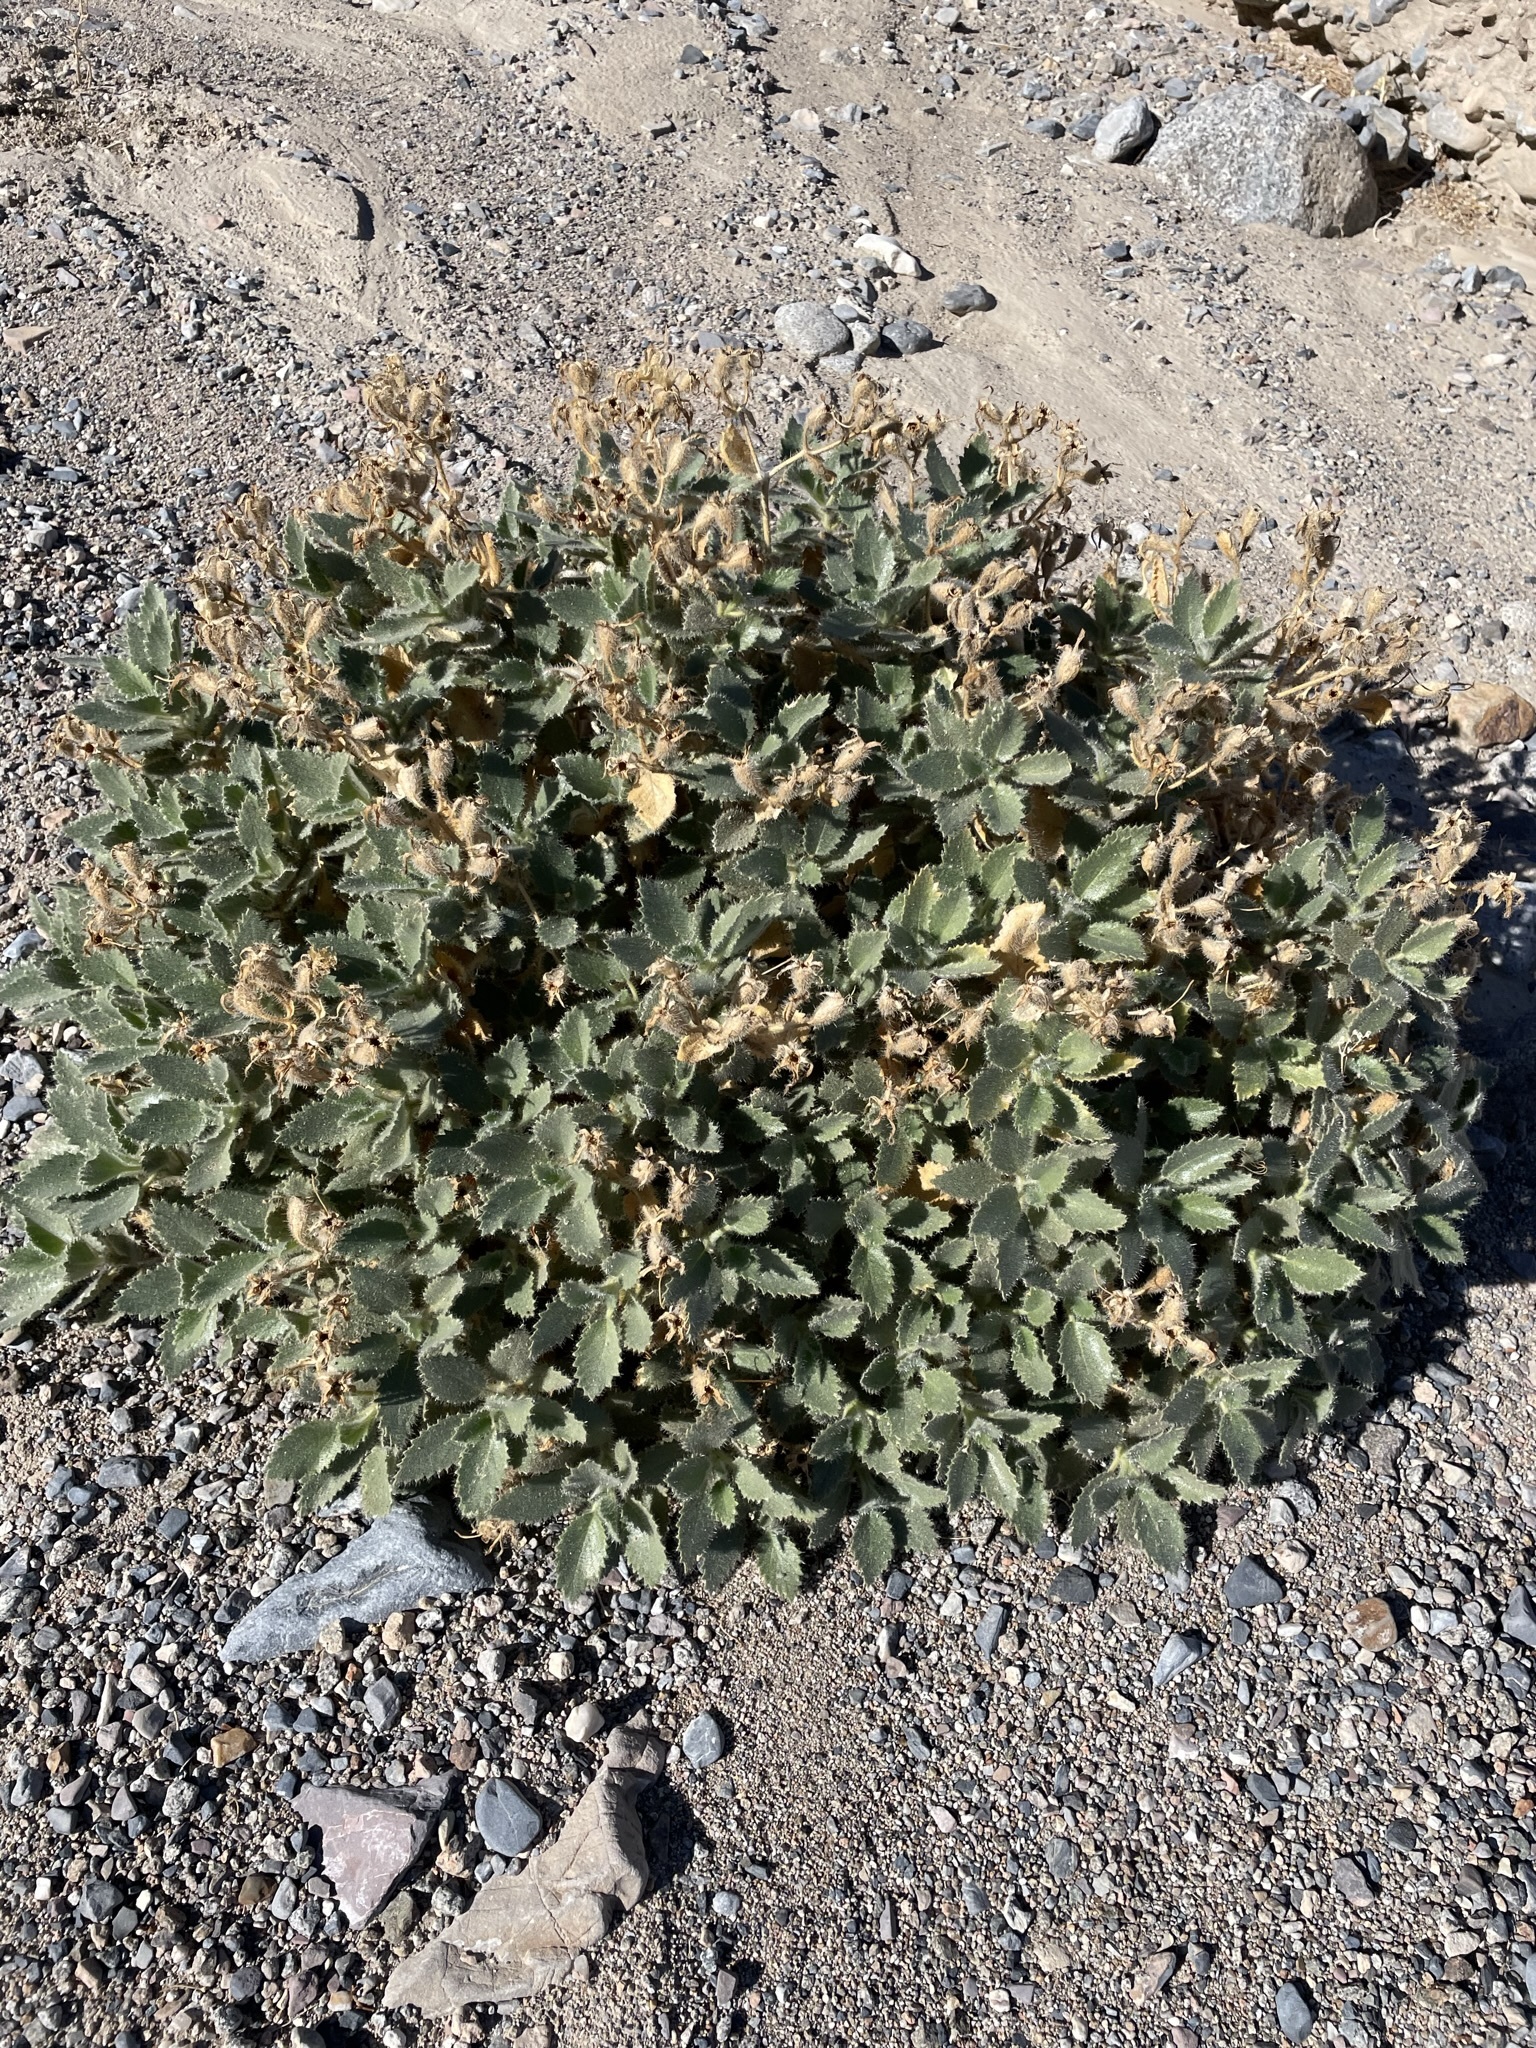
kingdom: Plantae
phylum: Tracheophyta
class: Magnoliopsida
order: Cornales
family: Loasaceae
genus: Eucnide
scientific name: Eucnide urens
